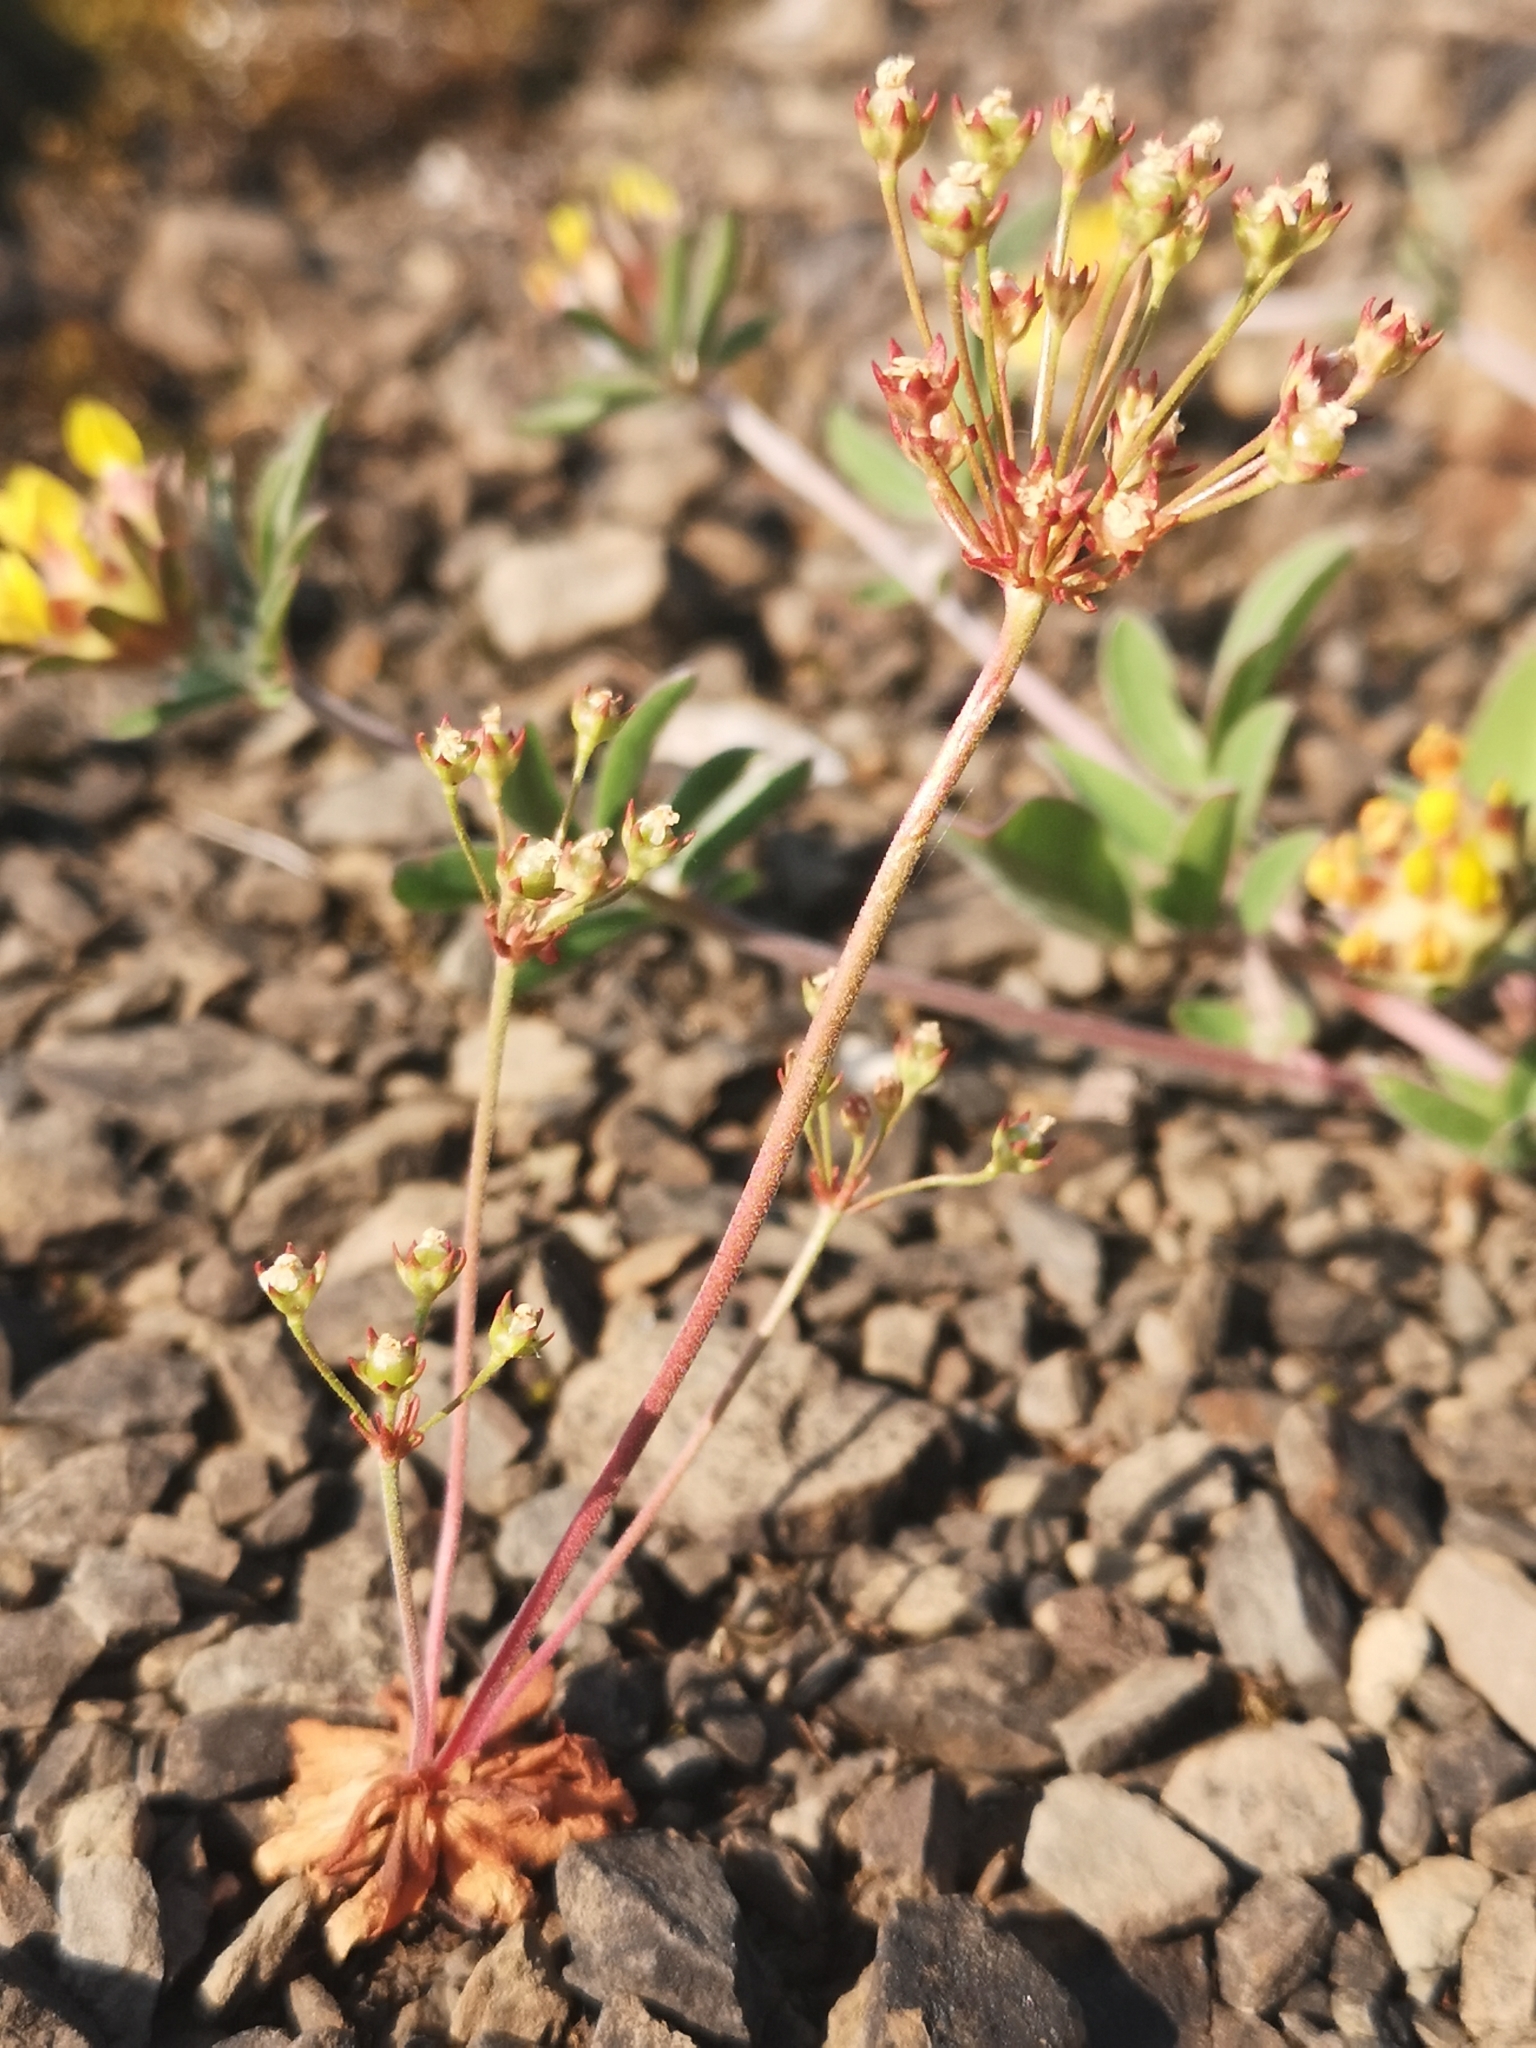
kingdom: Plantae
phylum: Tracheophyta
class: Magnoliopsida
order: Ericales
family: Primulaceae
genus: Androsace
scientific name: Androsace septentrionalis
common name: Hairy northern fairy-candelabra
